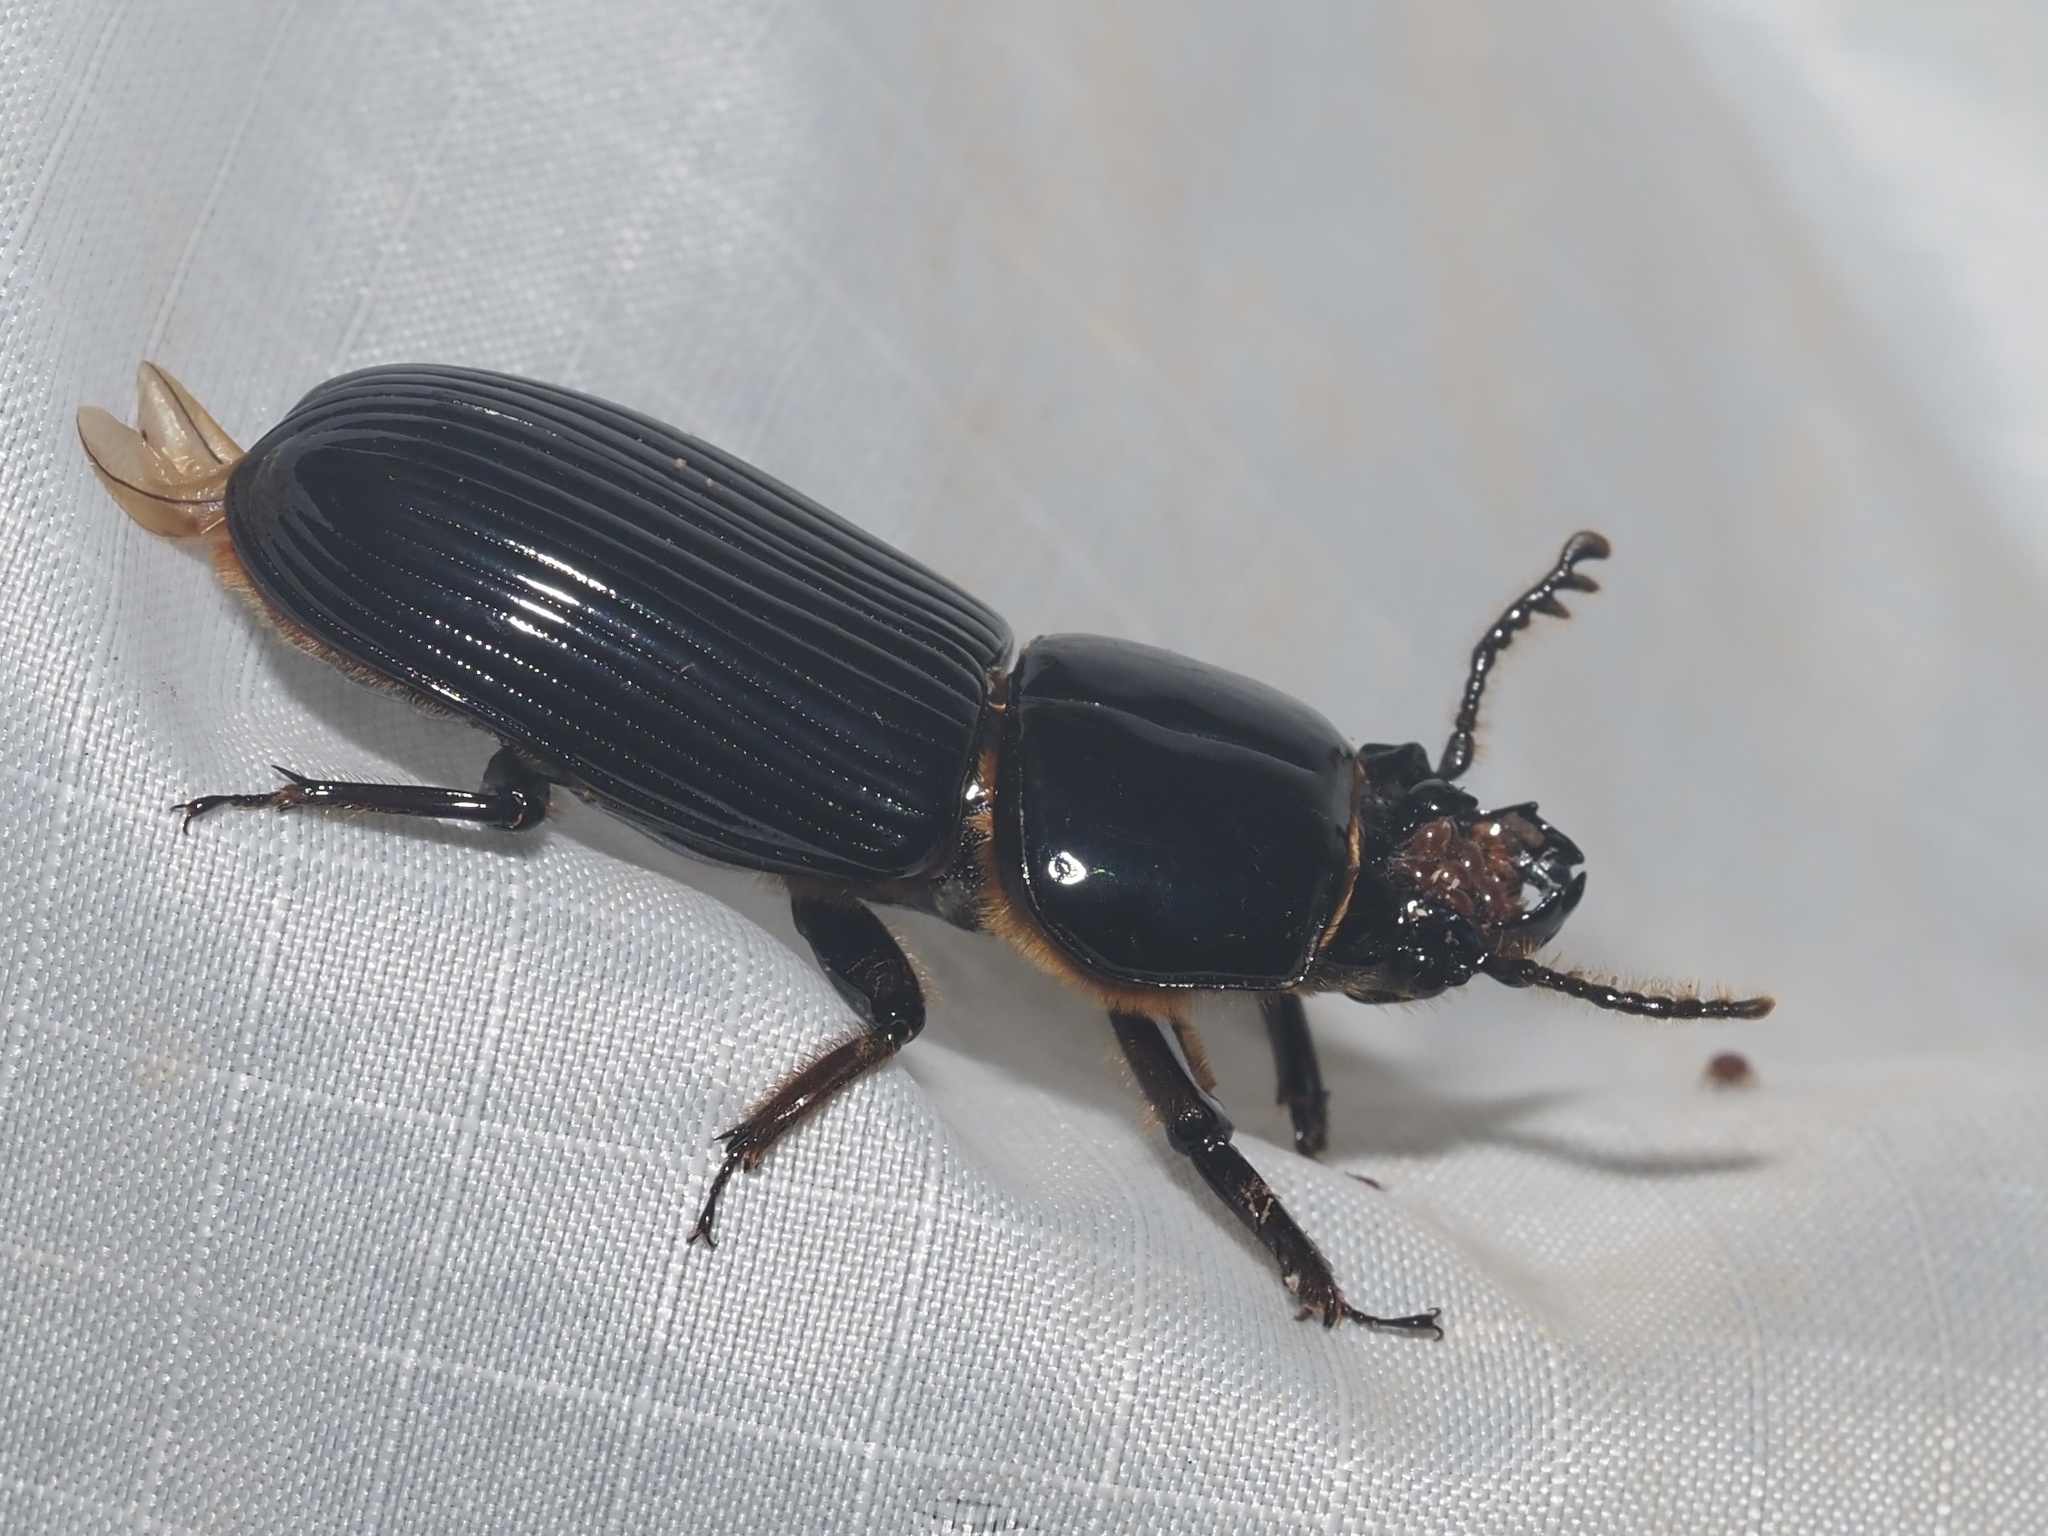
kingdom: Animalia
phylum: Arthropoda
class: Insecta
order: Coleoptera
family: Passalidae
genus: Odontotaenius
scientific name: Odontotaenius disjunctus
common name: Patent leather beetle
